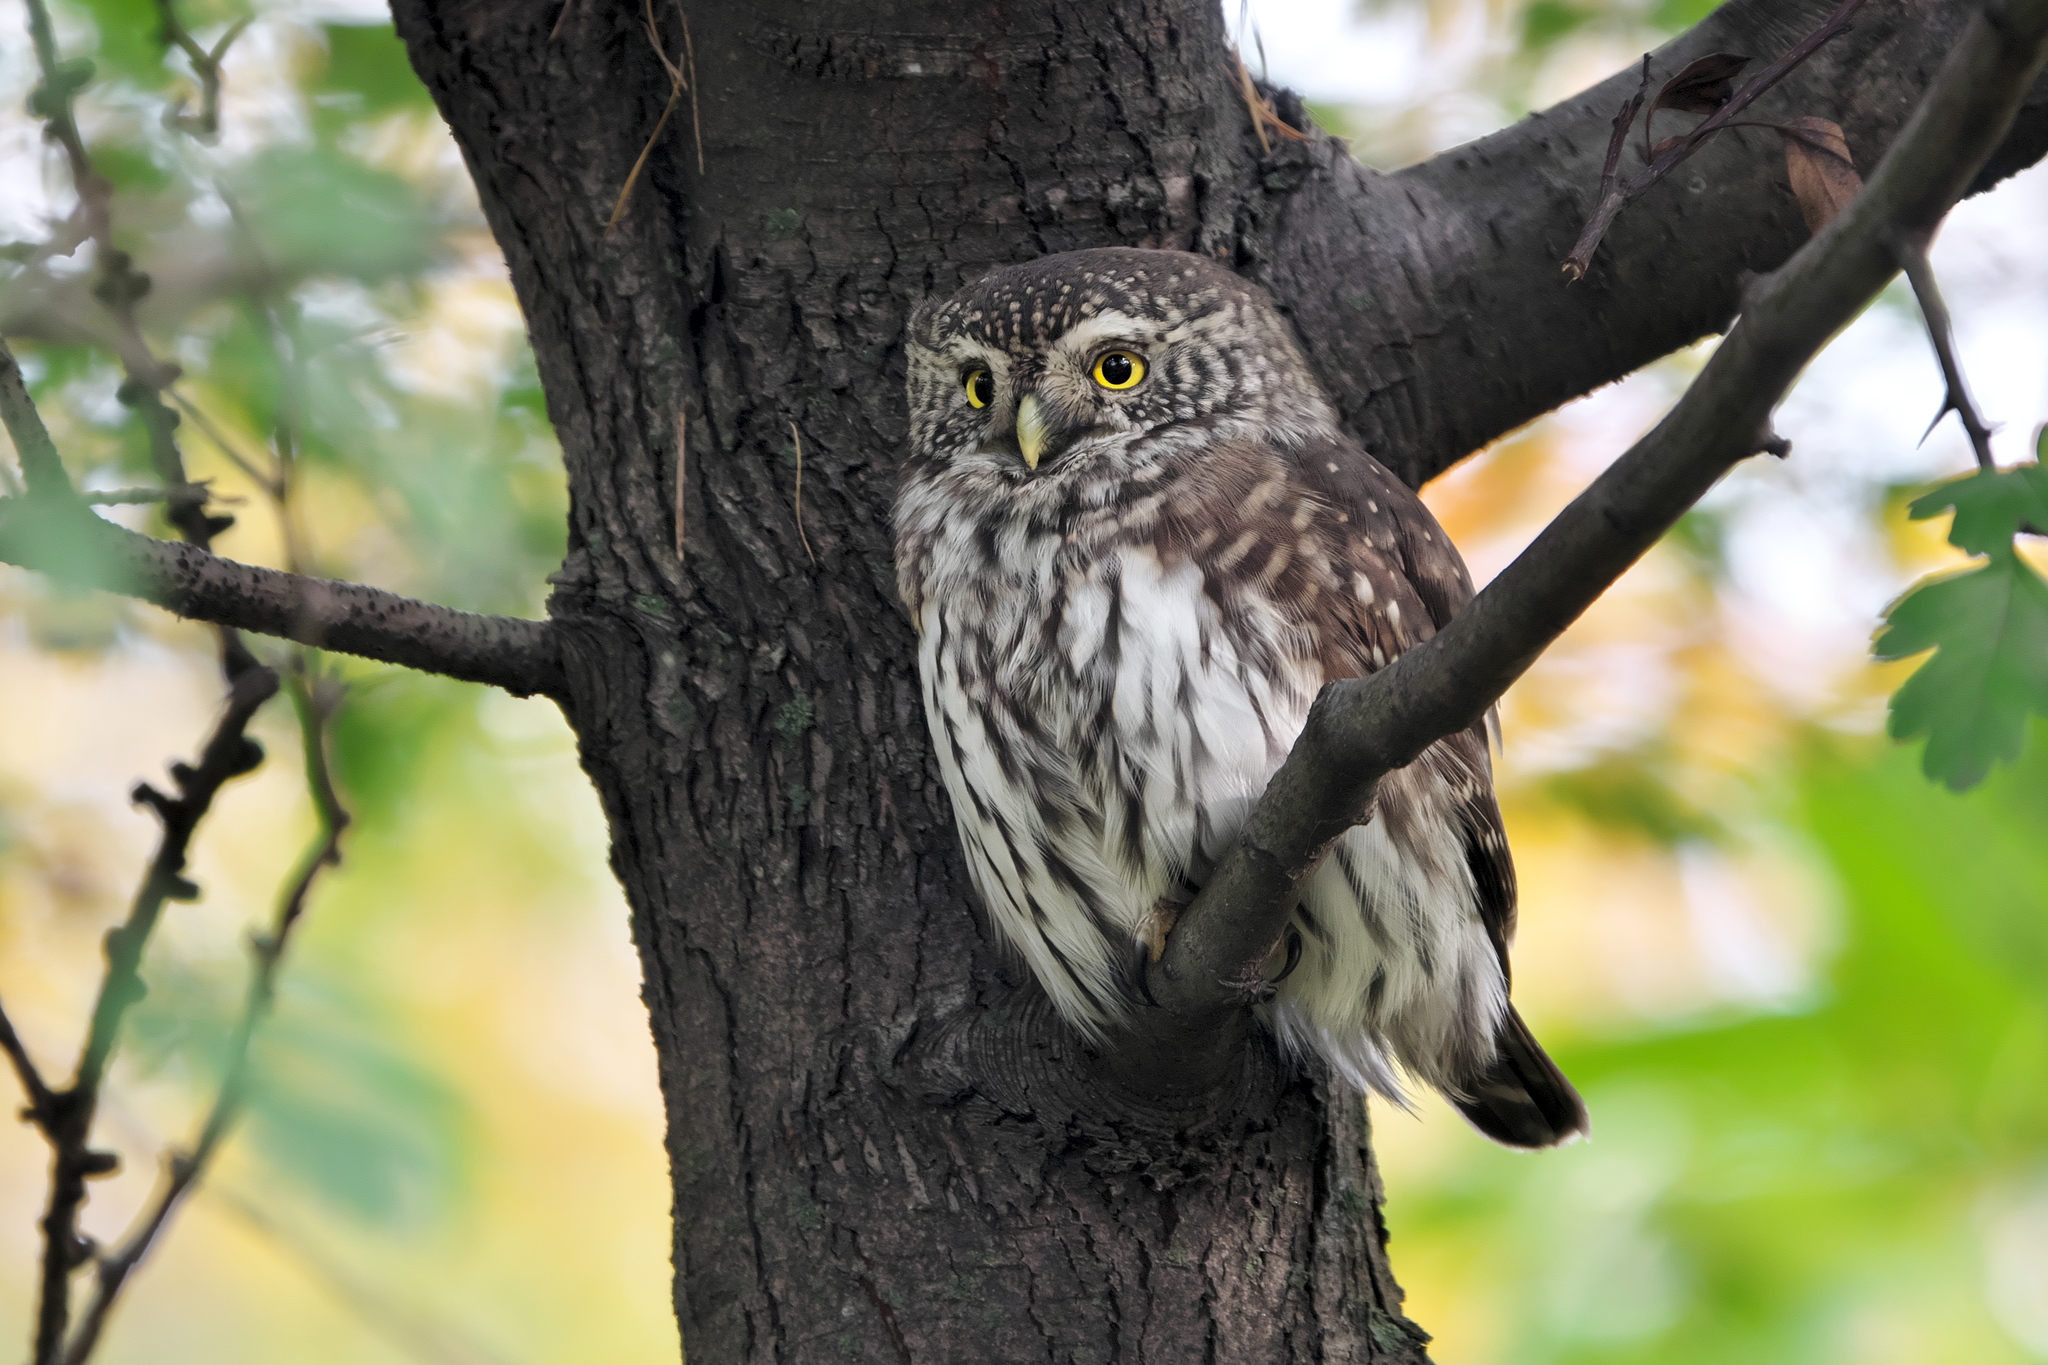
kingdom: Animalia
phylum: Chordata
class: Aves
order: Strigiformes
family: Strigidae
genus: Glaucidium
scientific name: Glaucidium passerinum
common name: Eurasian pygmy owl
